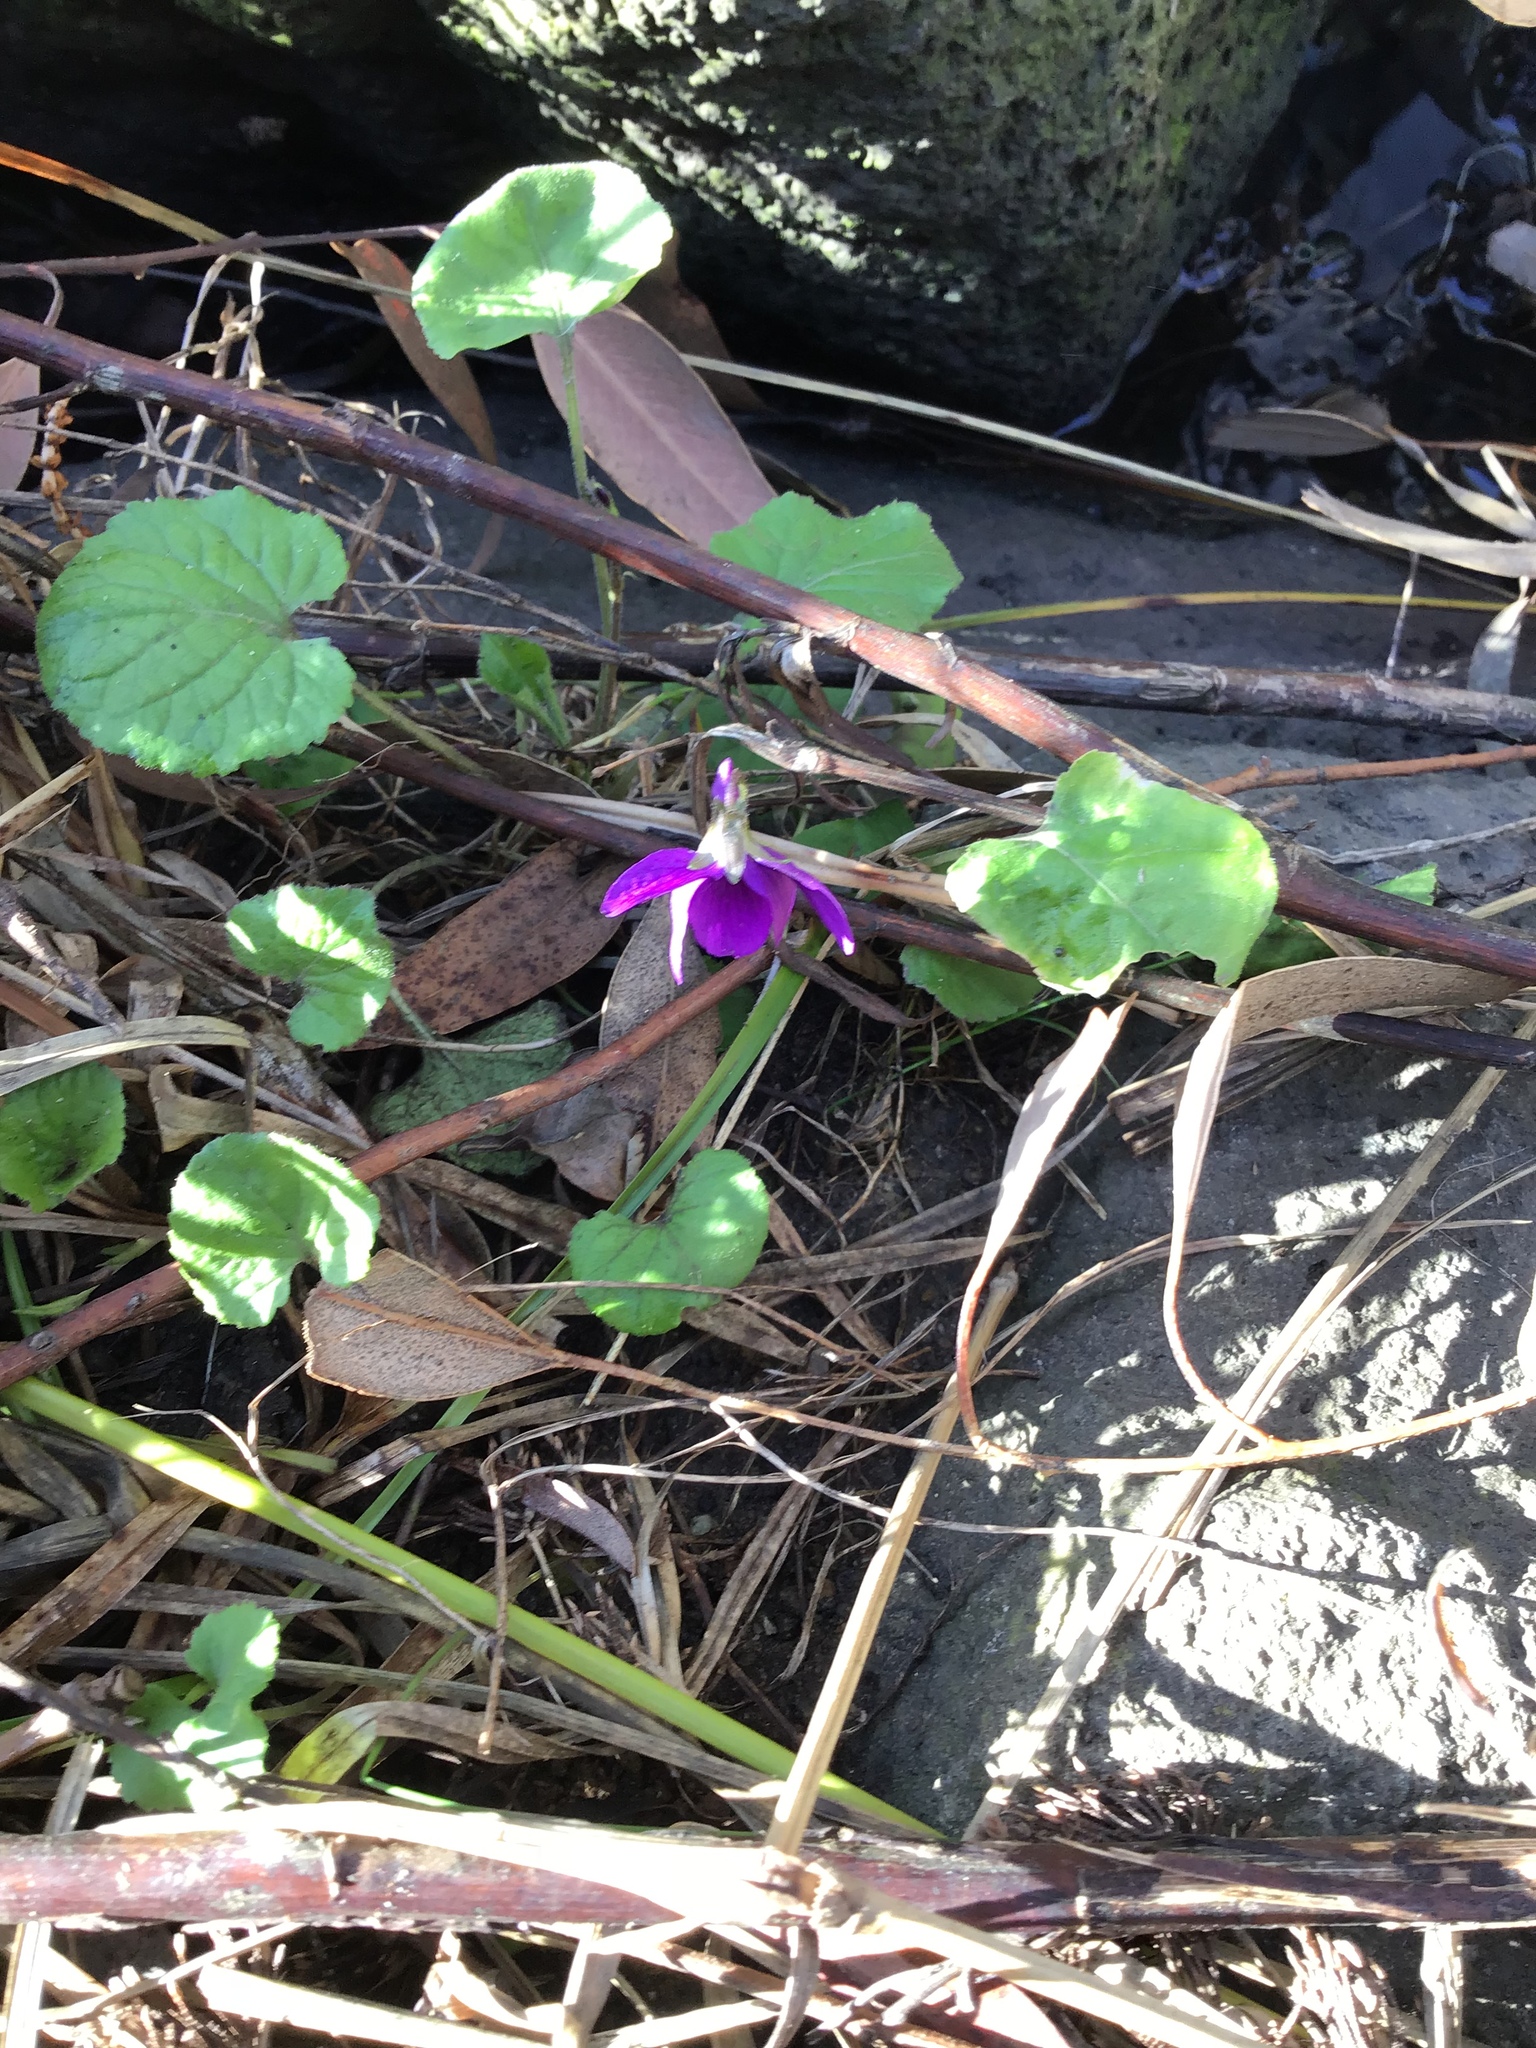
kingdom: Plantae
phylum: Tracheophyta
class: Magnoliopsida
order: Malpighiales
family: Violaceae
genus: Viola
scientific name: Viola odorata
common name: Sweet violet
